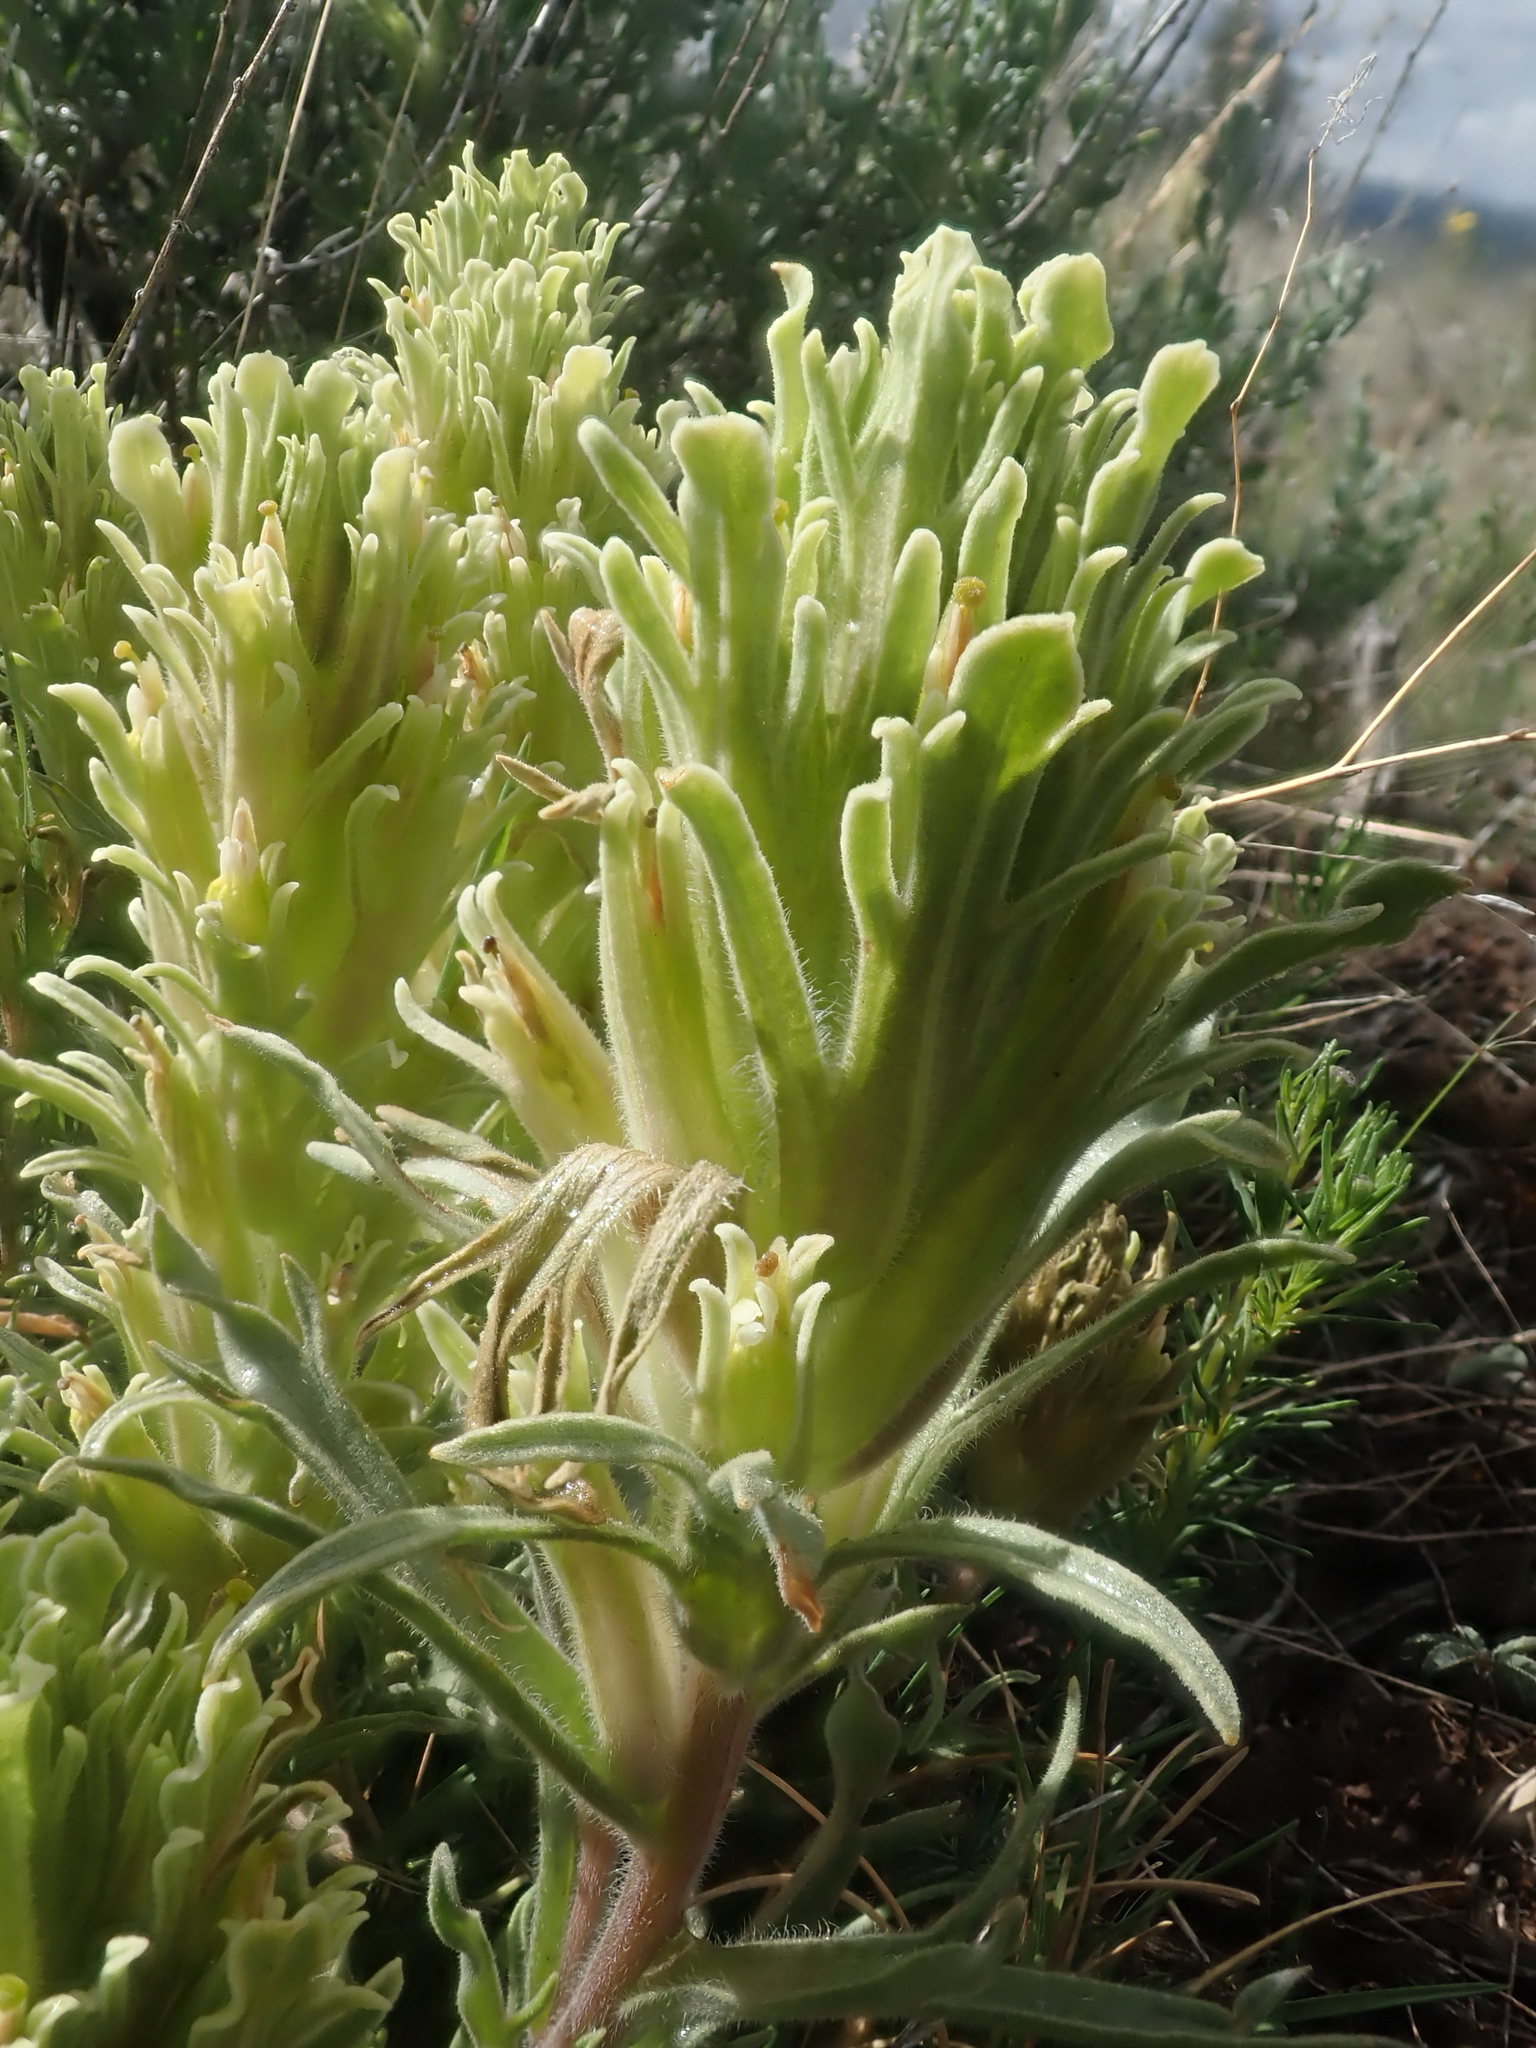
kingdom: Plantae
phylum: Tracheophyta
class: Magnoliopsida
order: Lamiales
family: Orobanchaceae
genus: Castilleja
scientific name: Castilleja pilosa
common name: Hairy paintbrush
